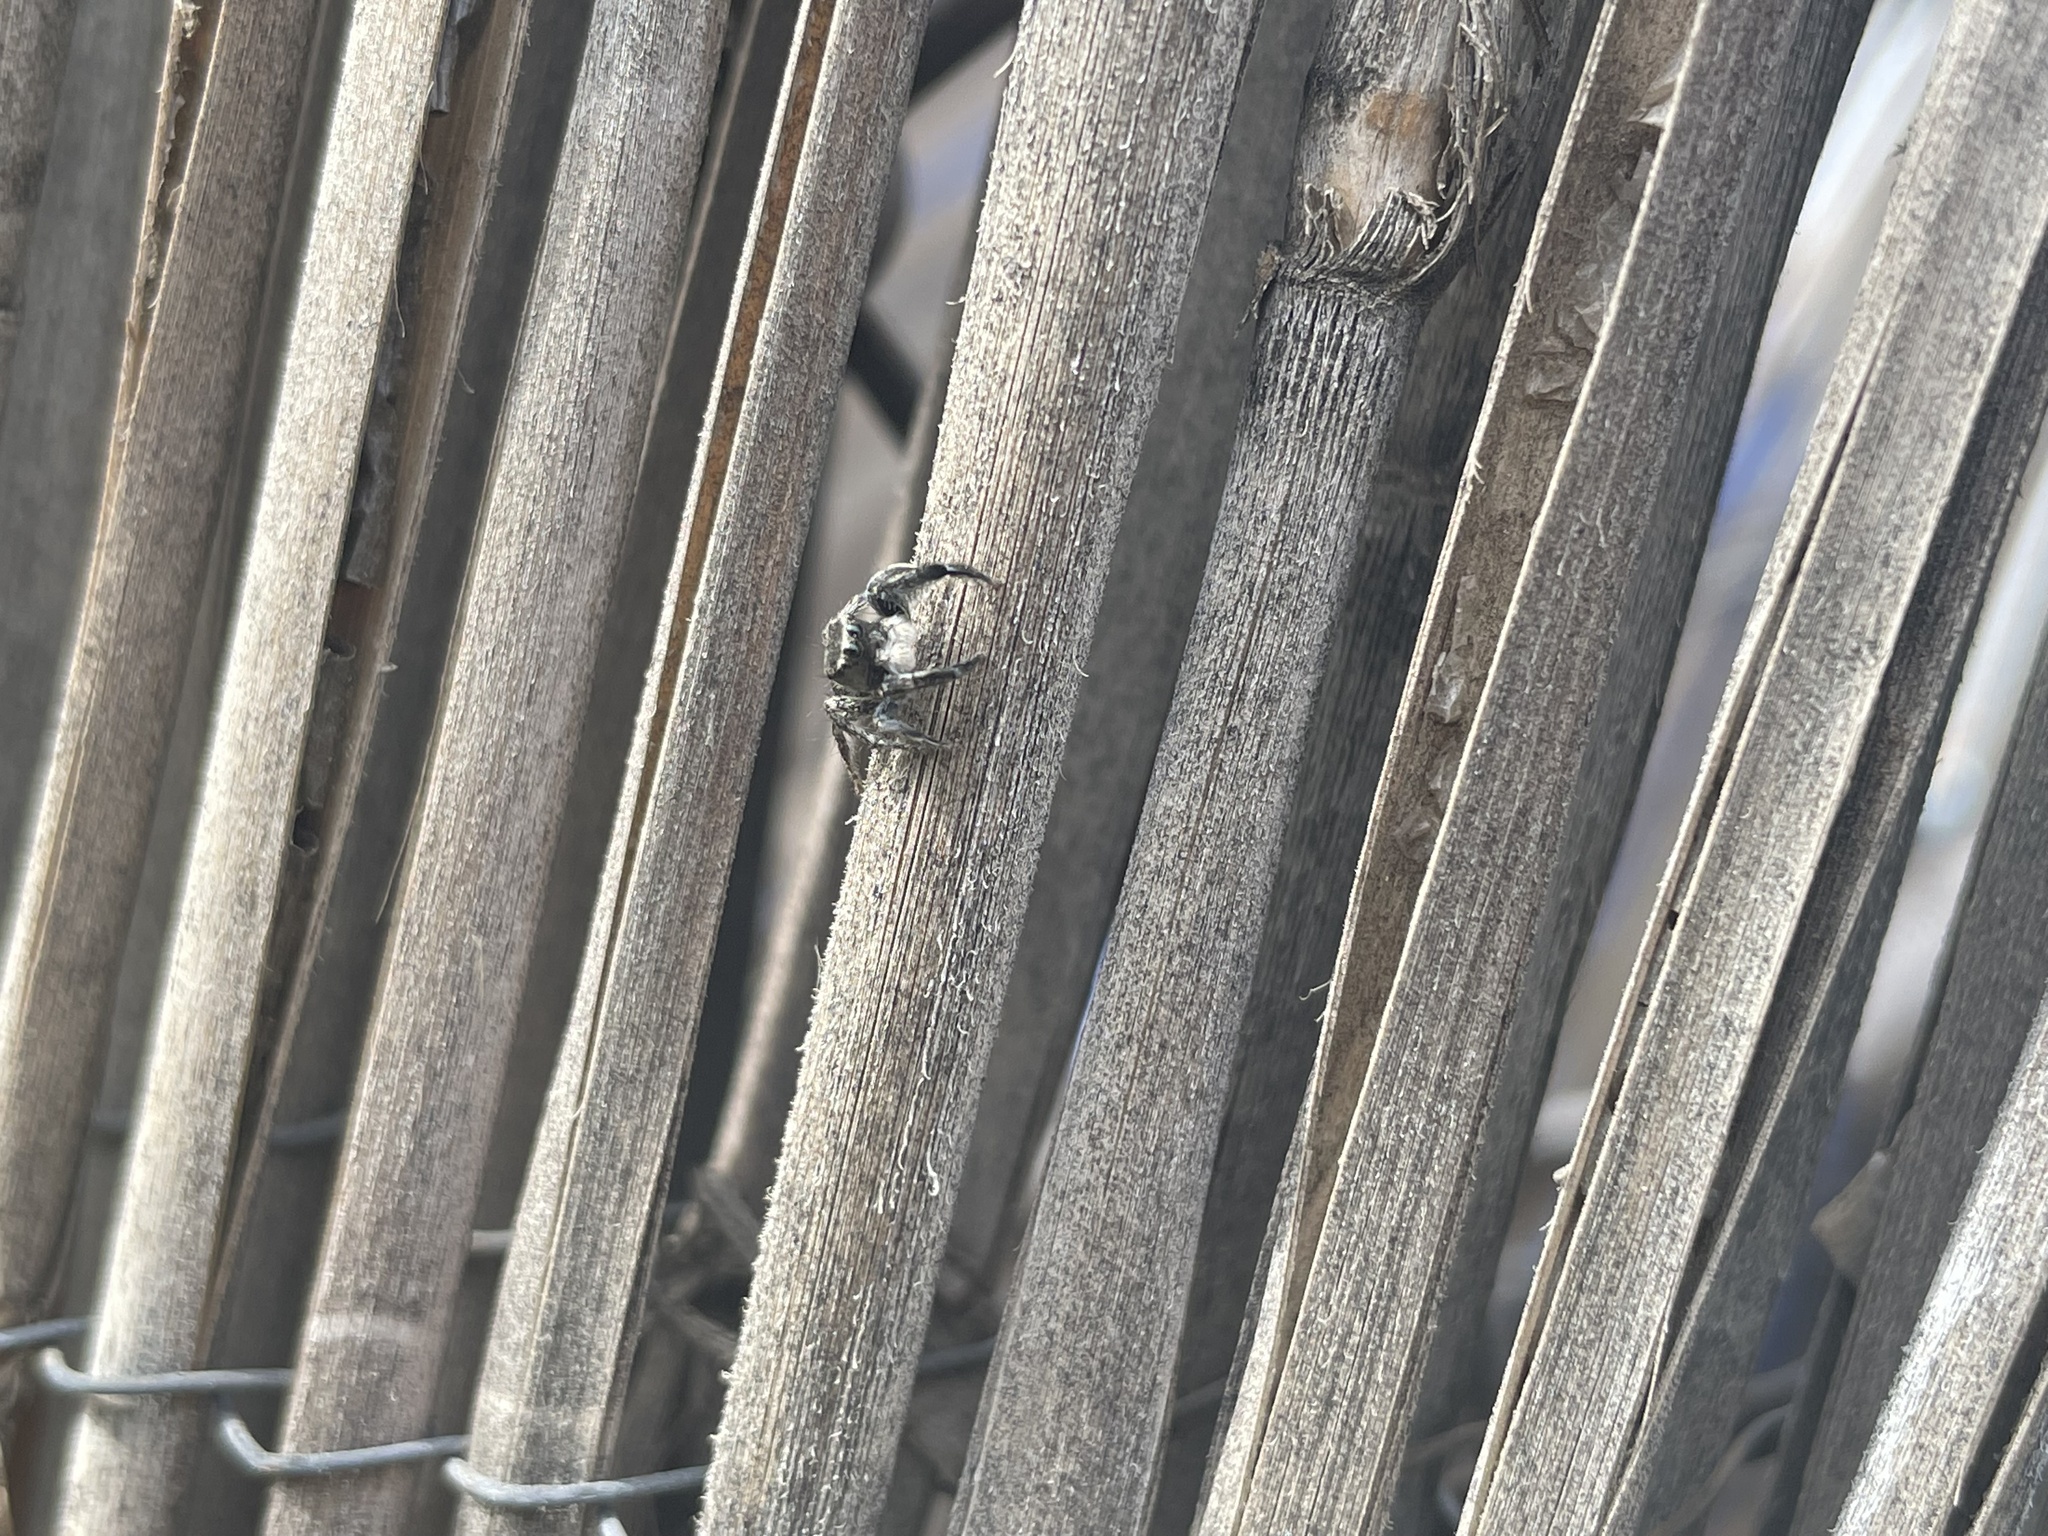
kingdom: Animalia
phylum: Arthropoda
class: Arachnida
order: Araneae
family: Salticidae
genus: Habronattus
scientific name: Habronattus hirsutus
